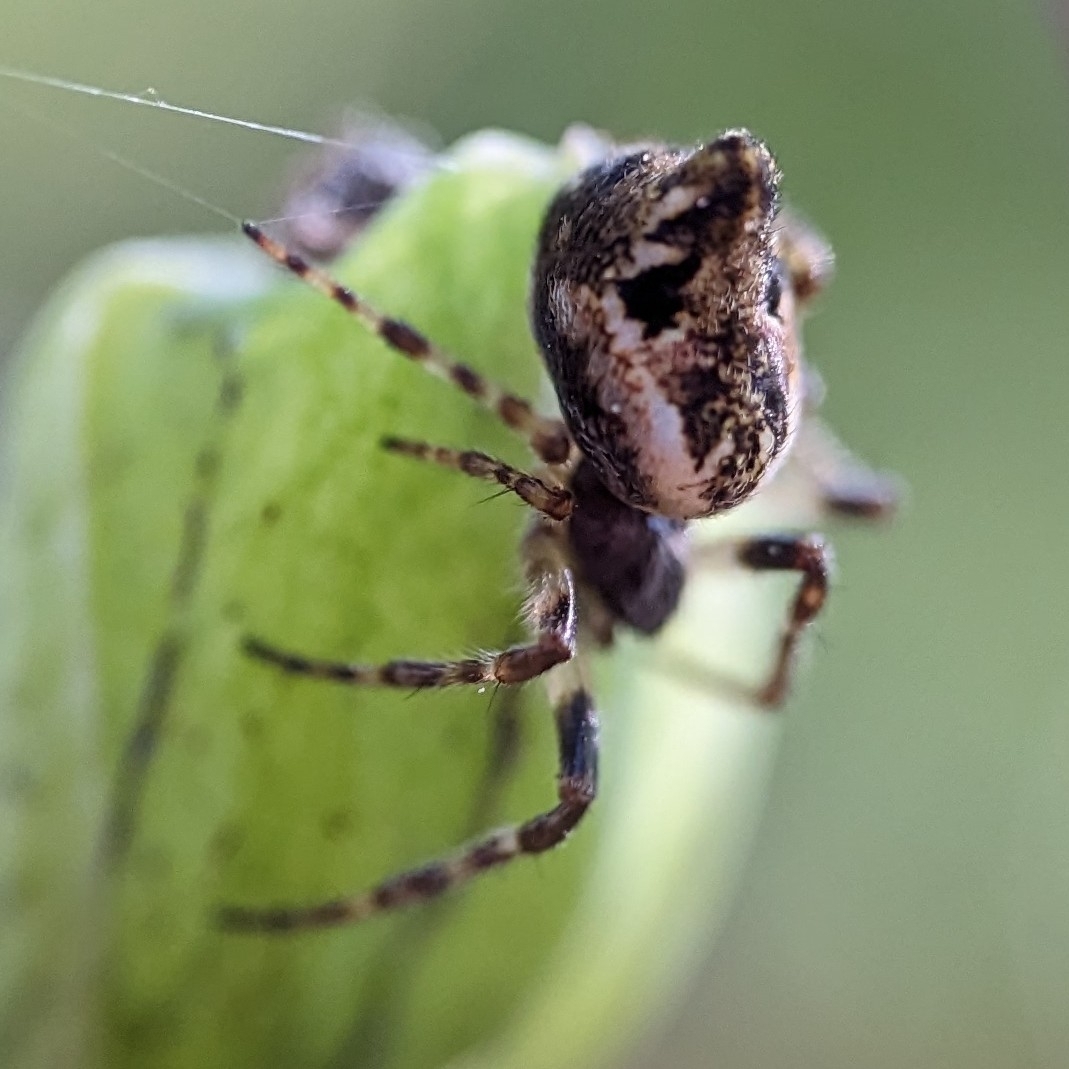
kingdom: Animalia
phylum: Arthropoda
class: Arachnida
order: Araneae
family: Araneidae
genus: Cyclosa
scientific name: Cyclosa conica
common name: Conical trashline orbweaver
